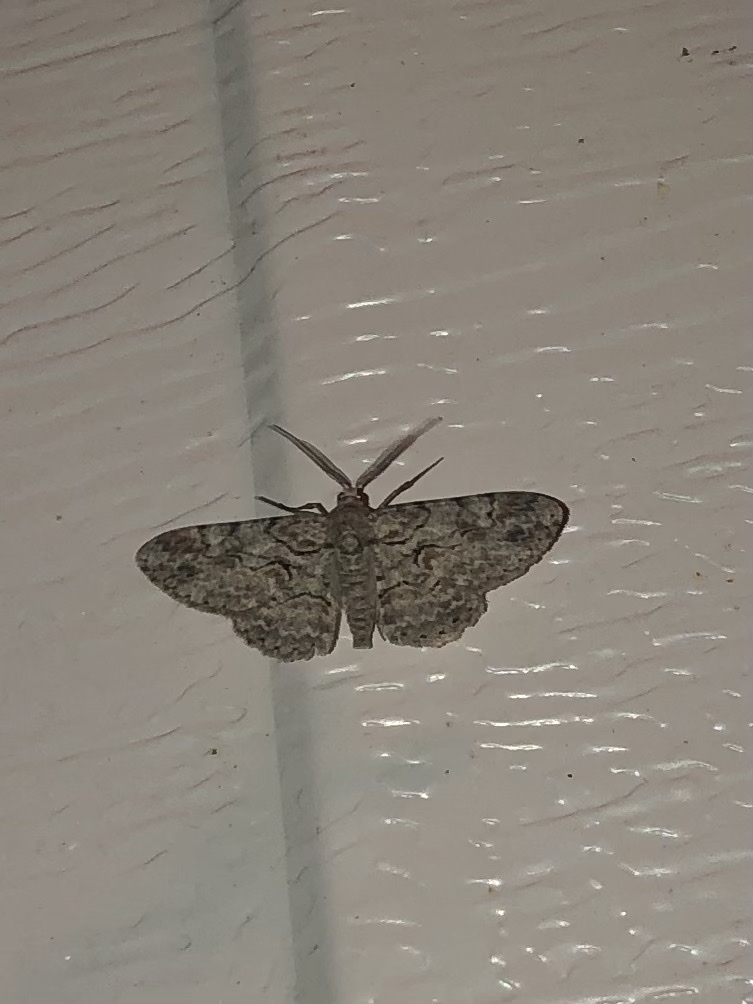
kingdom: Animalia
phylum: Arthropoda
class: Insecta
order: Lepidoptera
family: Geometridae
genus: Iridopsis
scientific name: Iridopsis defectaria
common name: Brown-shaded gray
